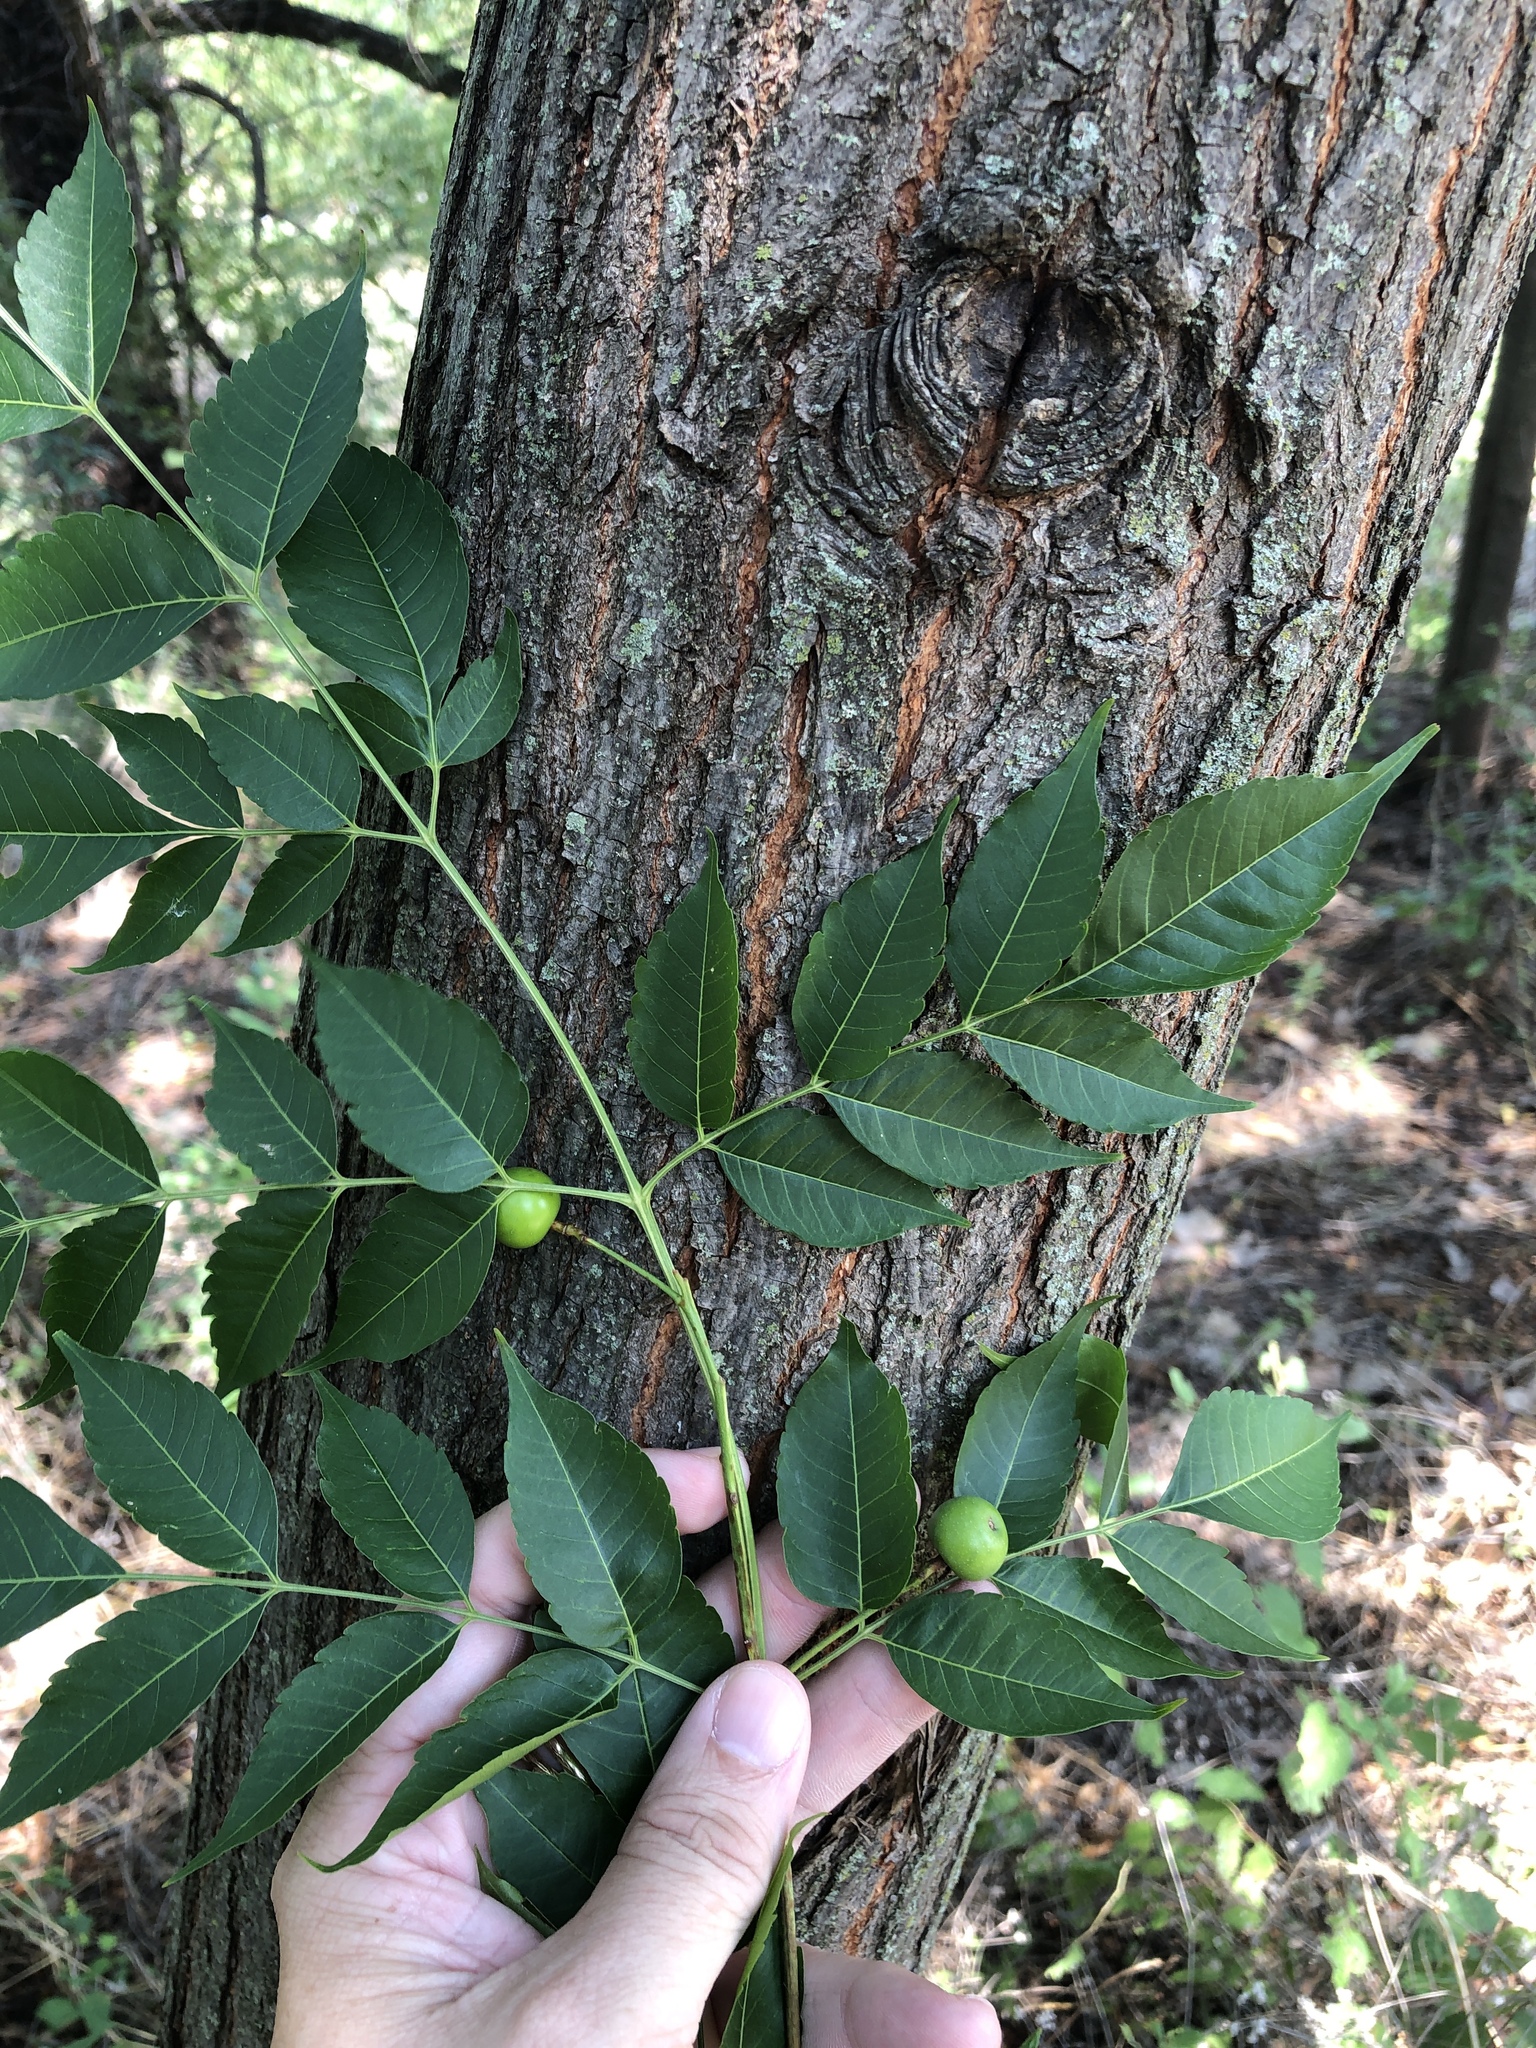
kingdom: Plantae
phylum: Tracheophyta
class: Magnoliopsida
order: Sapindales
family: Meliaceae
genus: Melia
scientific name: Melia azedarach
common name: Chinaberrytree
